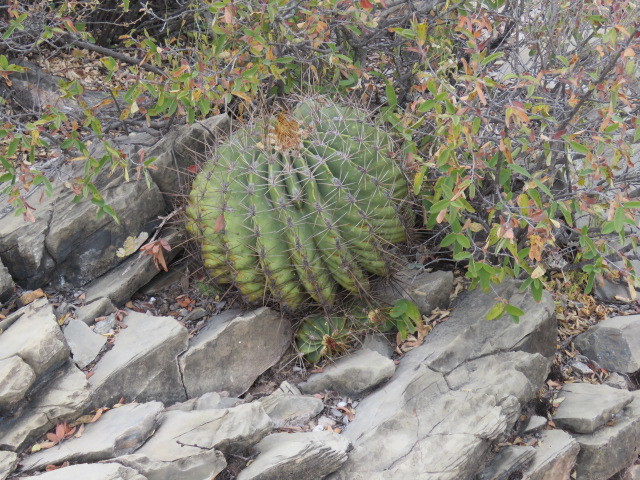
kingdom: Plantae
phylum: Tracheophyta
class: Magnoliopsida
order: Caryophyllales
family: Cactaceae
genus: Parrycactus
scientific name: Parrycactus echidne
